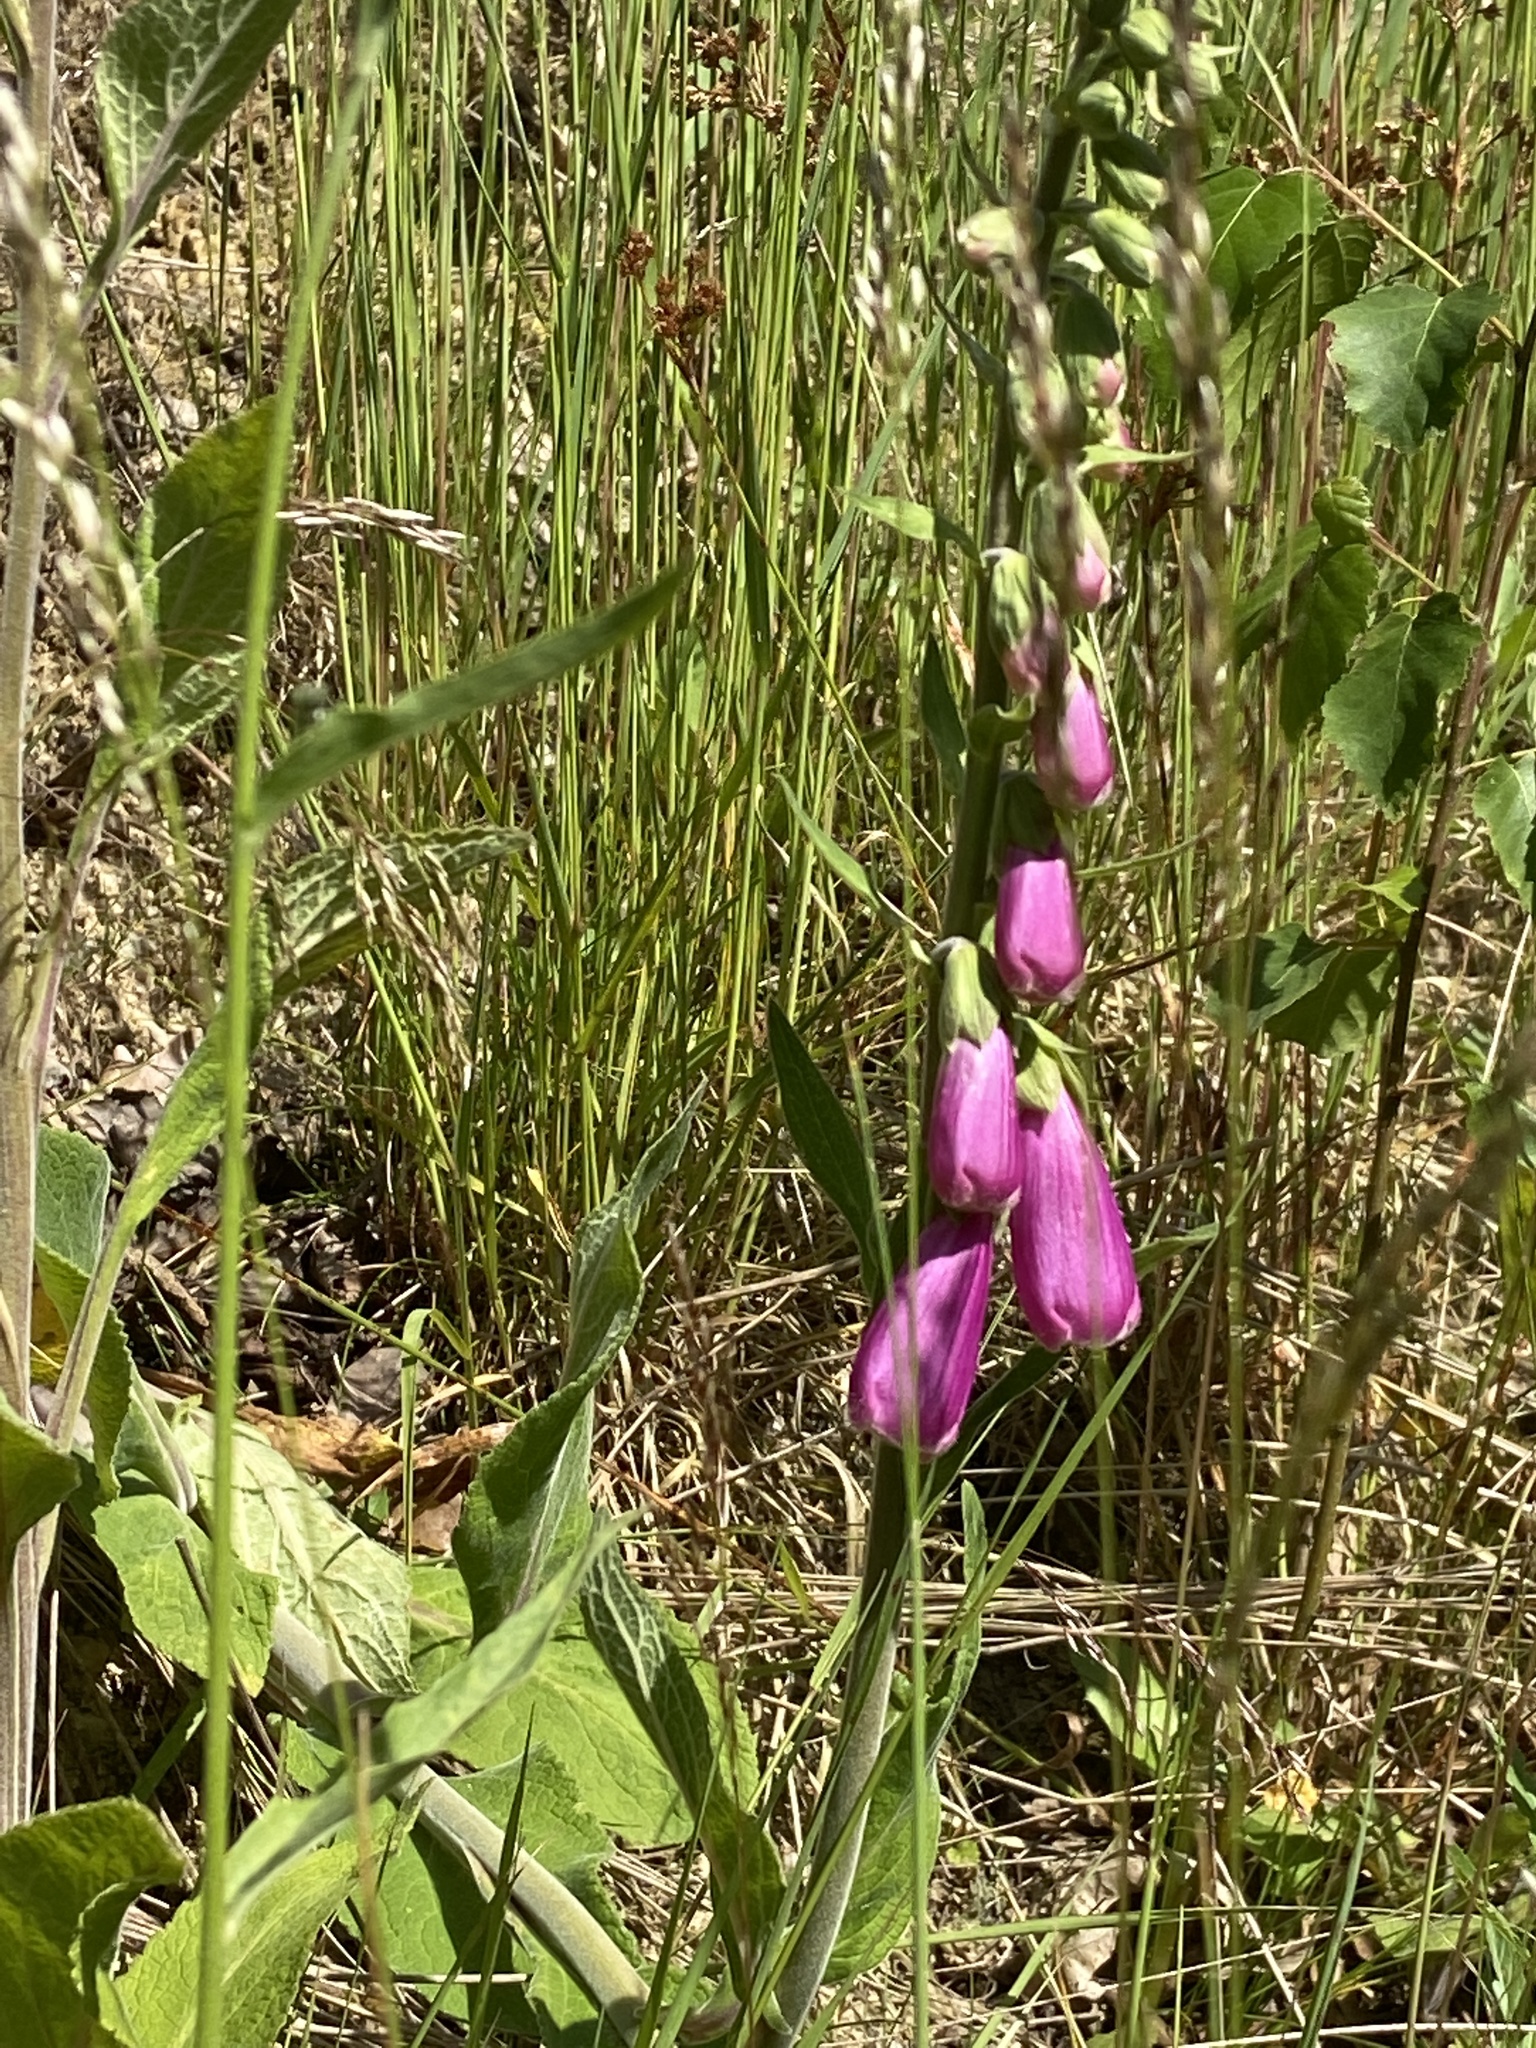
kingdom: Plantae
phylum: Tracheophyta
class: Magnoliopsida
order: Lamiales
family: Plantaginaceae
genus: Digitalis
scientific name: Digitalis purpurea
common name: Foxglove
